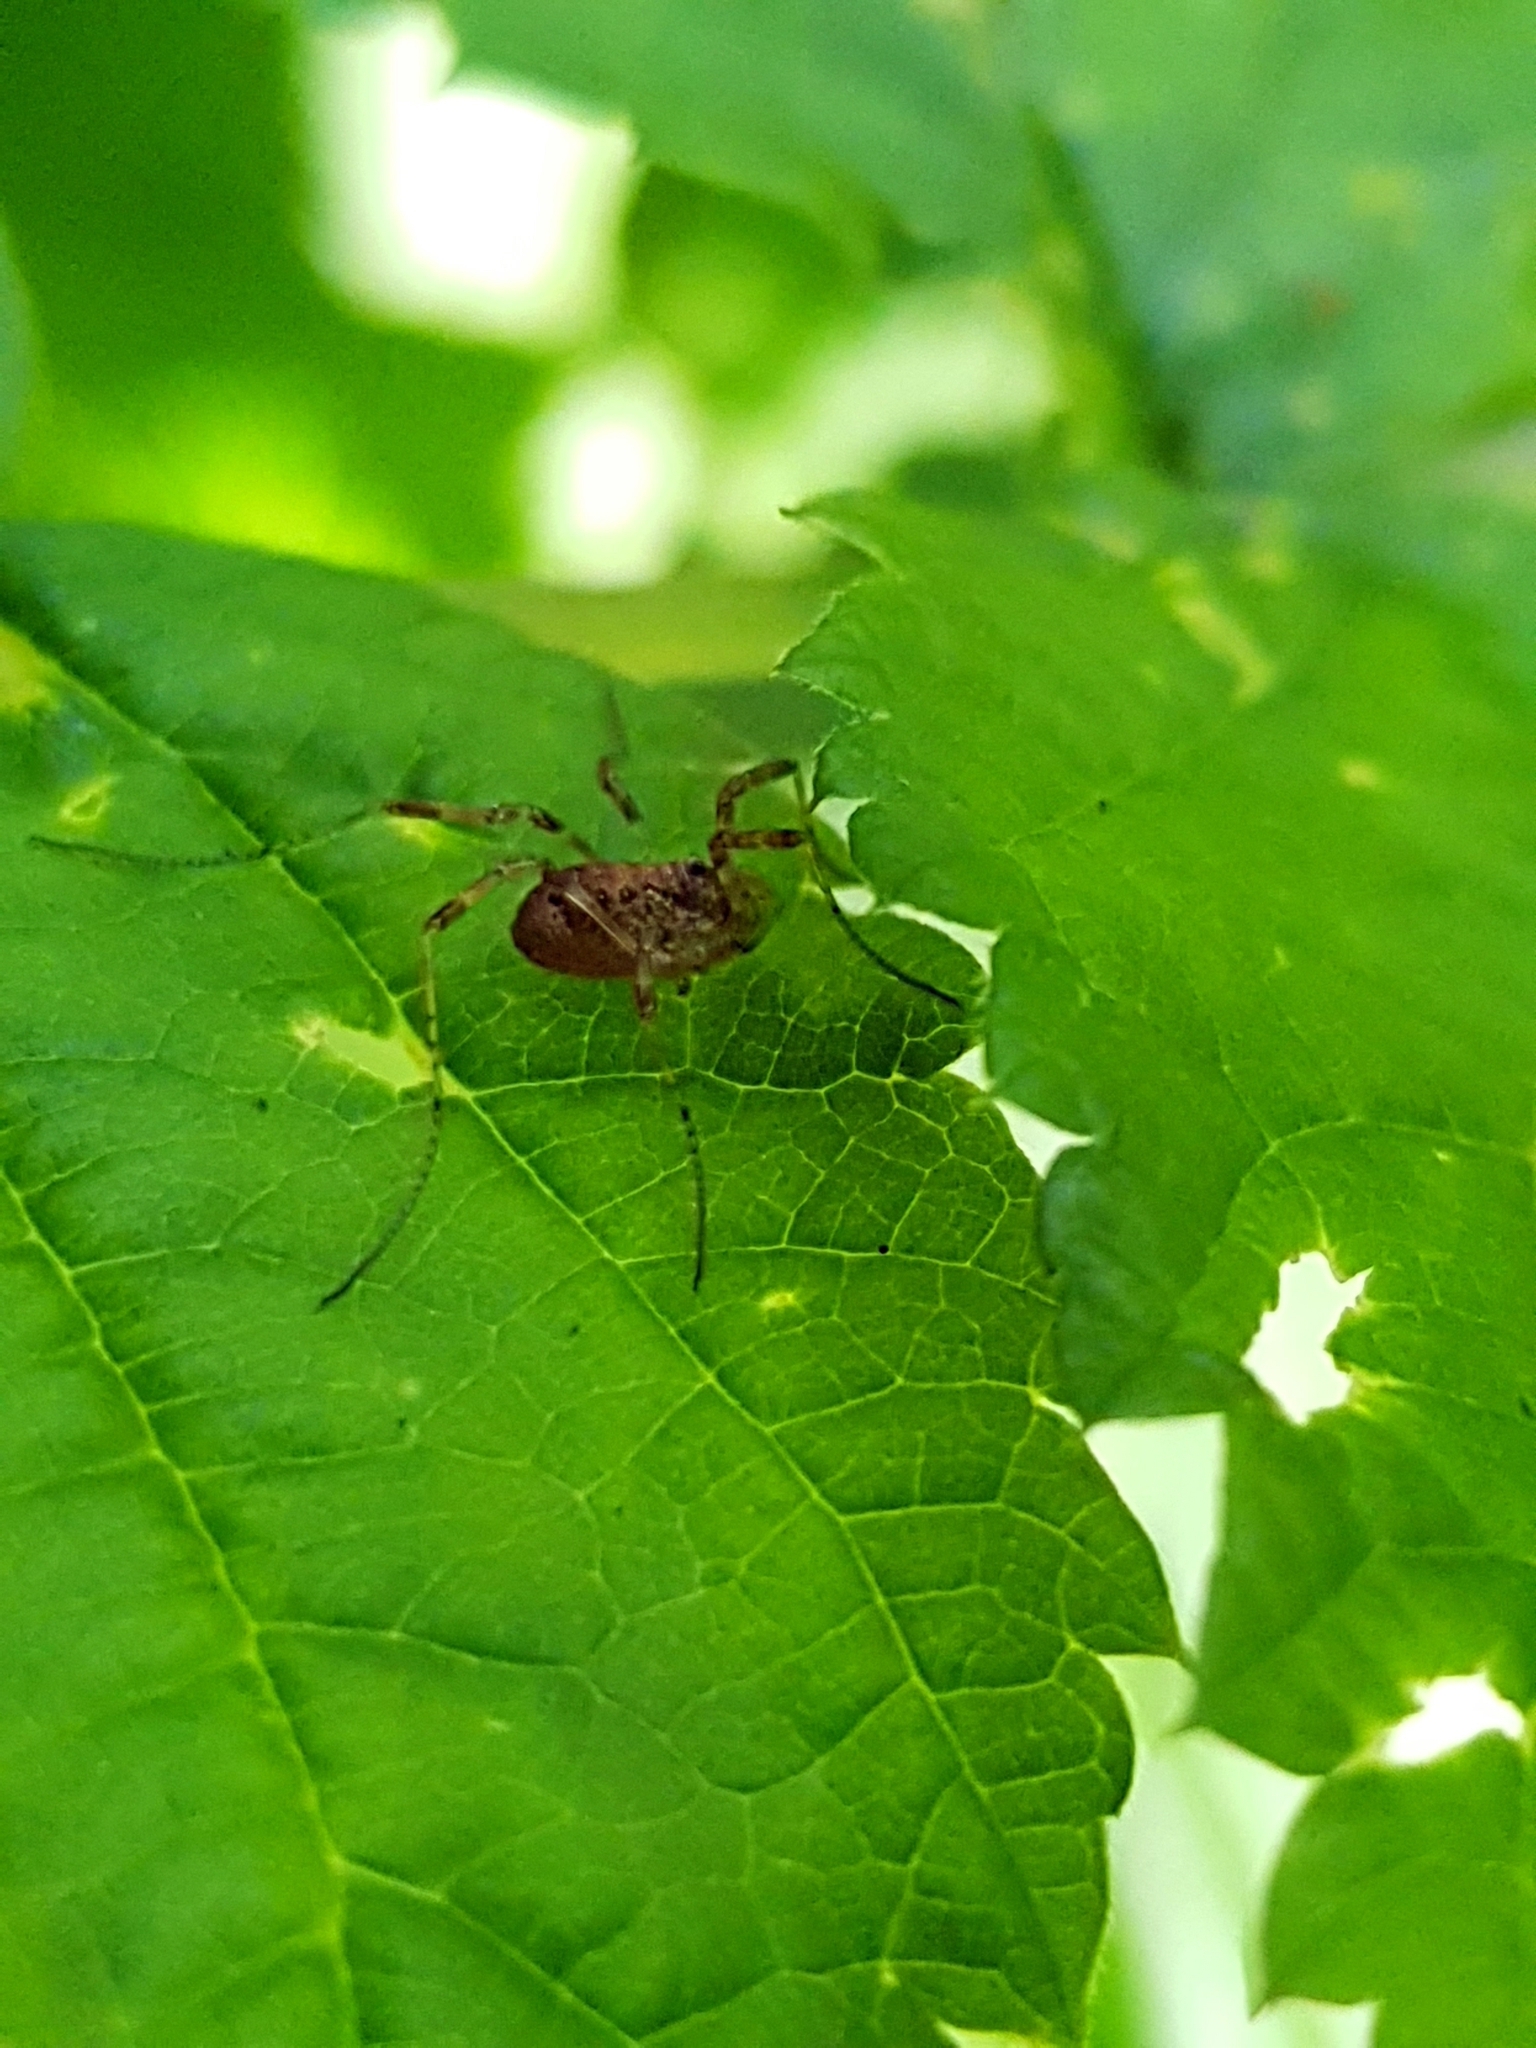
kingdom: Animalia
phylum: Arthropoda
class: Arachnida
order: Opiliones
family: Phalangiidae
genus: Paroligolophus
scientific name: Paroligolophus agrestis
